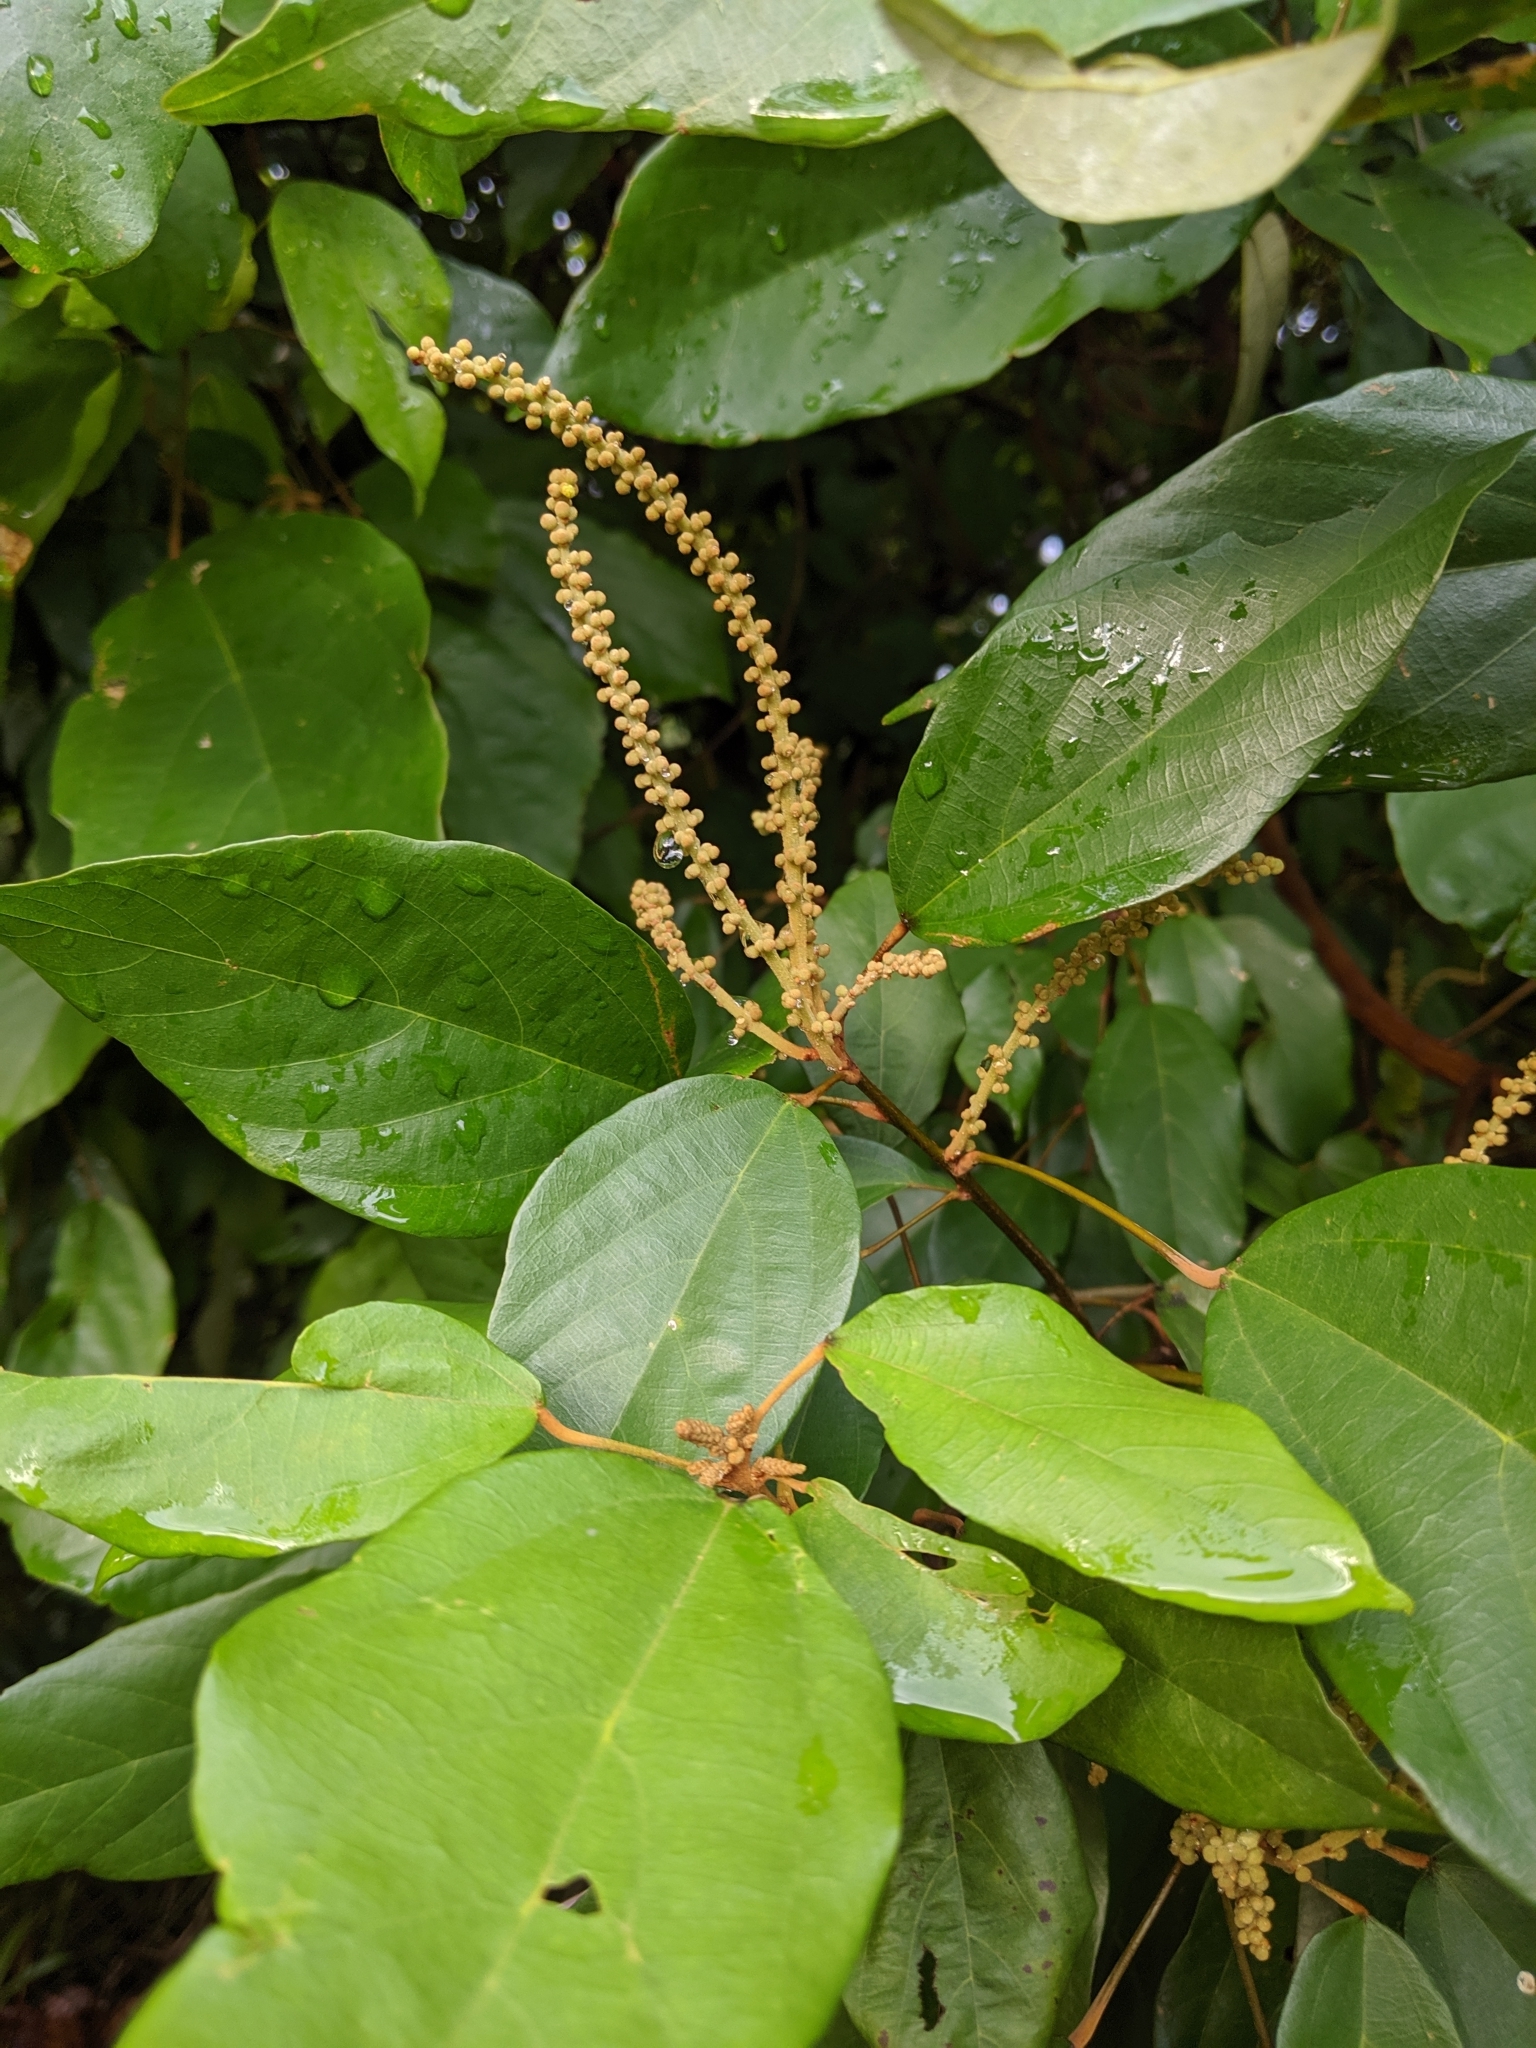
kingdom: Plantae
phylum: Tracheophyta
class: Magnoliopsida
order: Malpighiales
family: Euphorbiaceae
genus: Mallotus
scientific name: Mallotus philippensis
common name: Kamala tree
